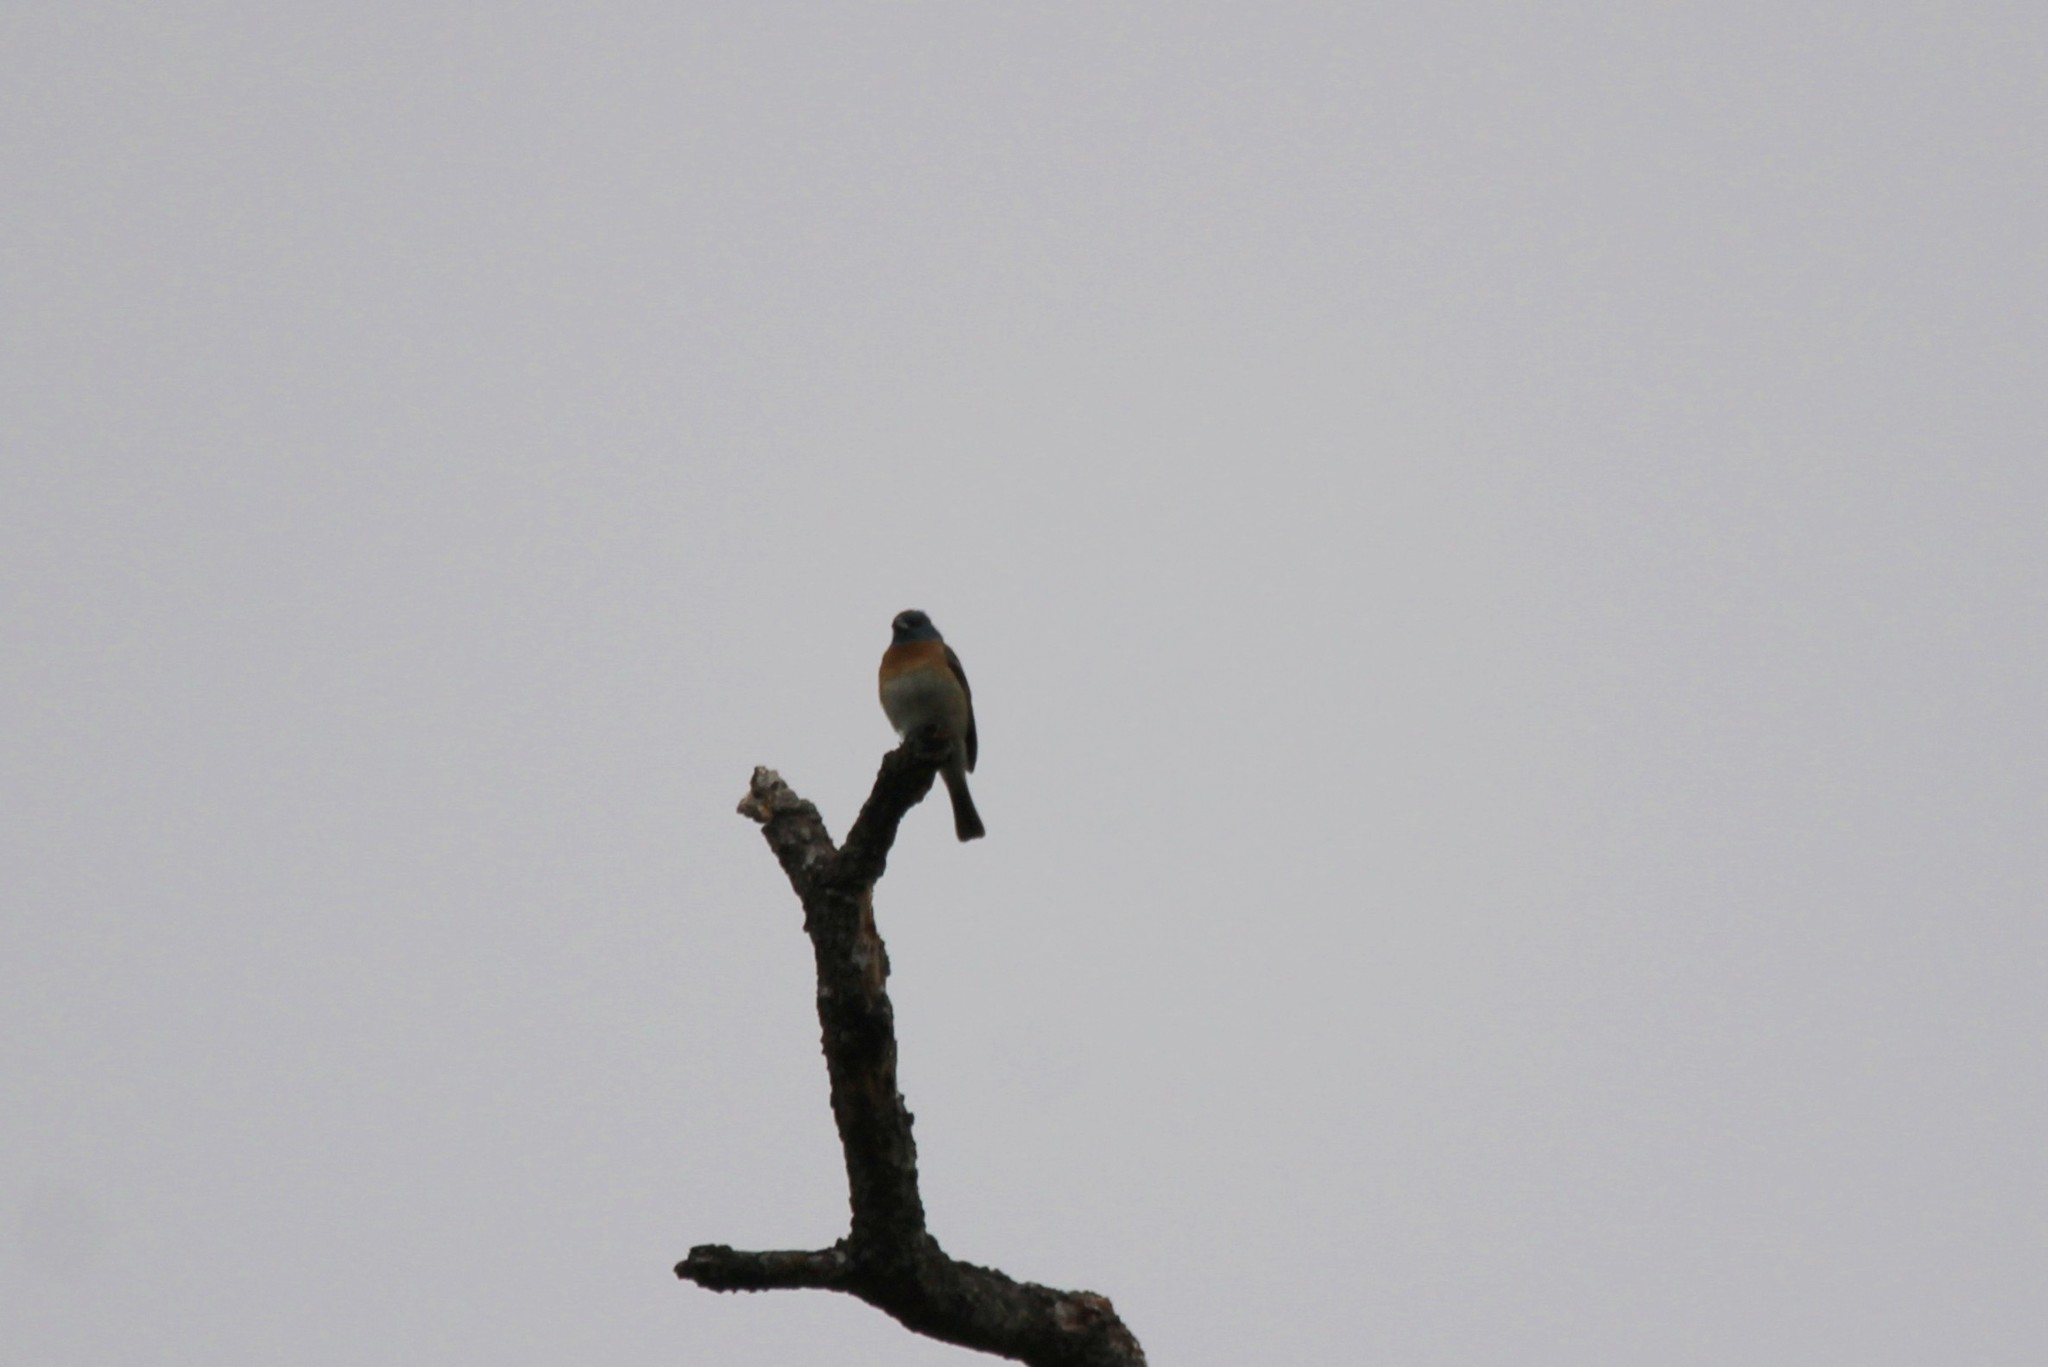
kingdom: Animalia
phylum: Chordata
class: Aves
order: Passeriformes
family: Cardinalidae
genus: Passerina
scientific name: Passerina amoena
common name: Lazuli bunting
